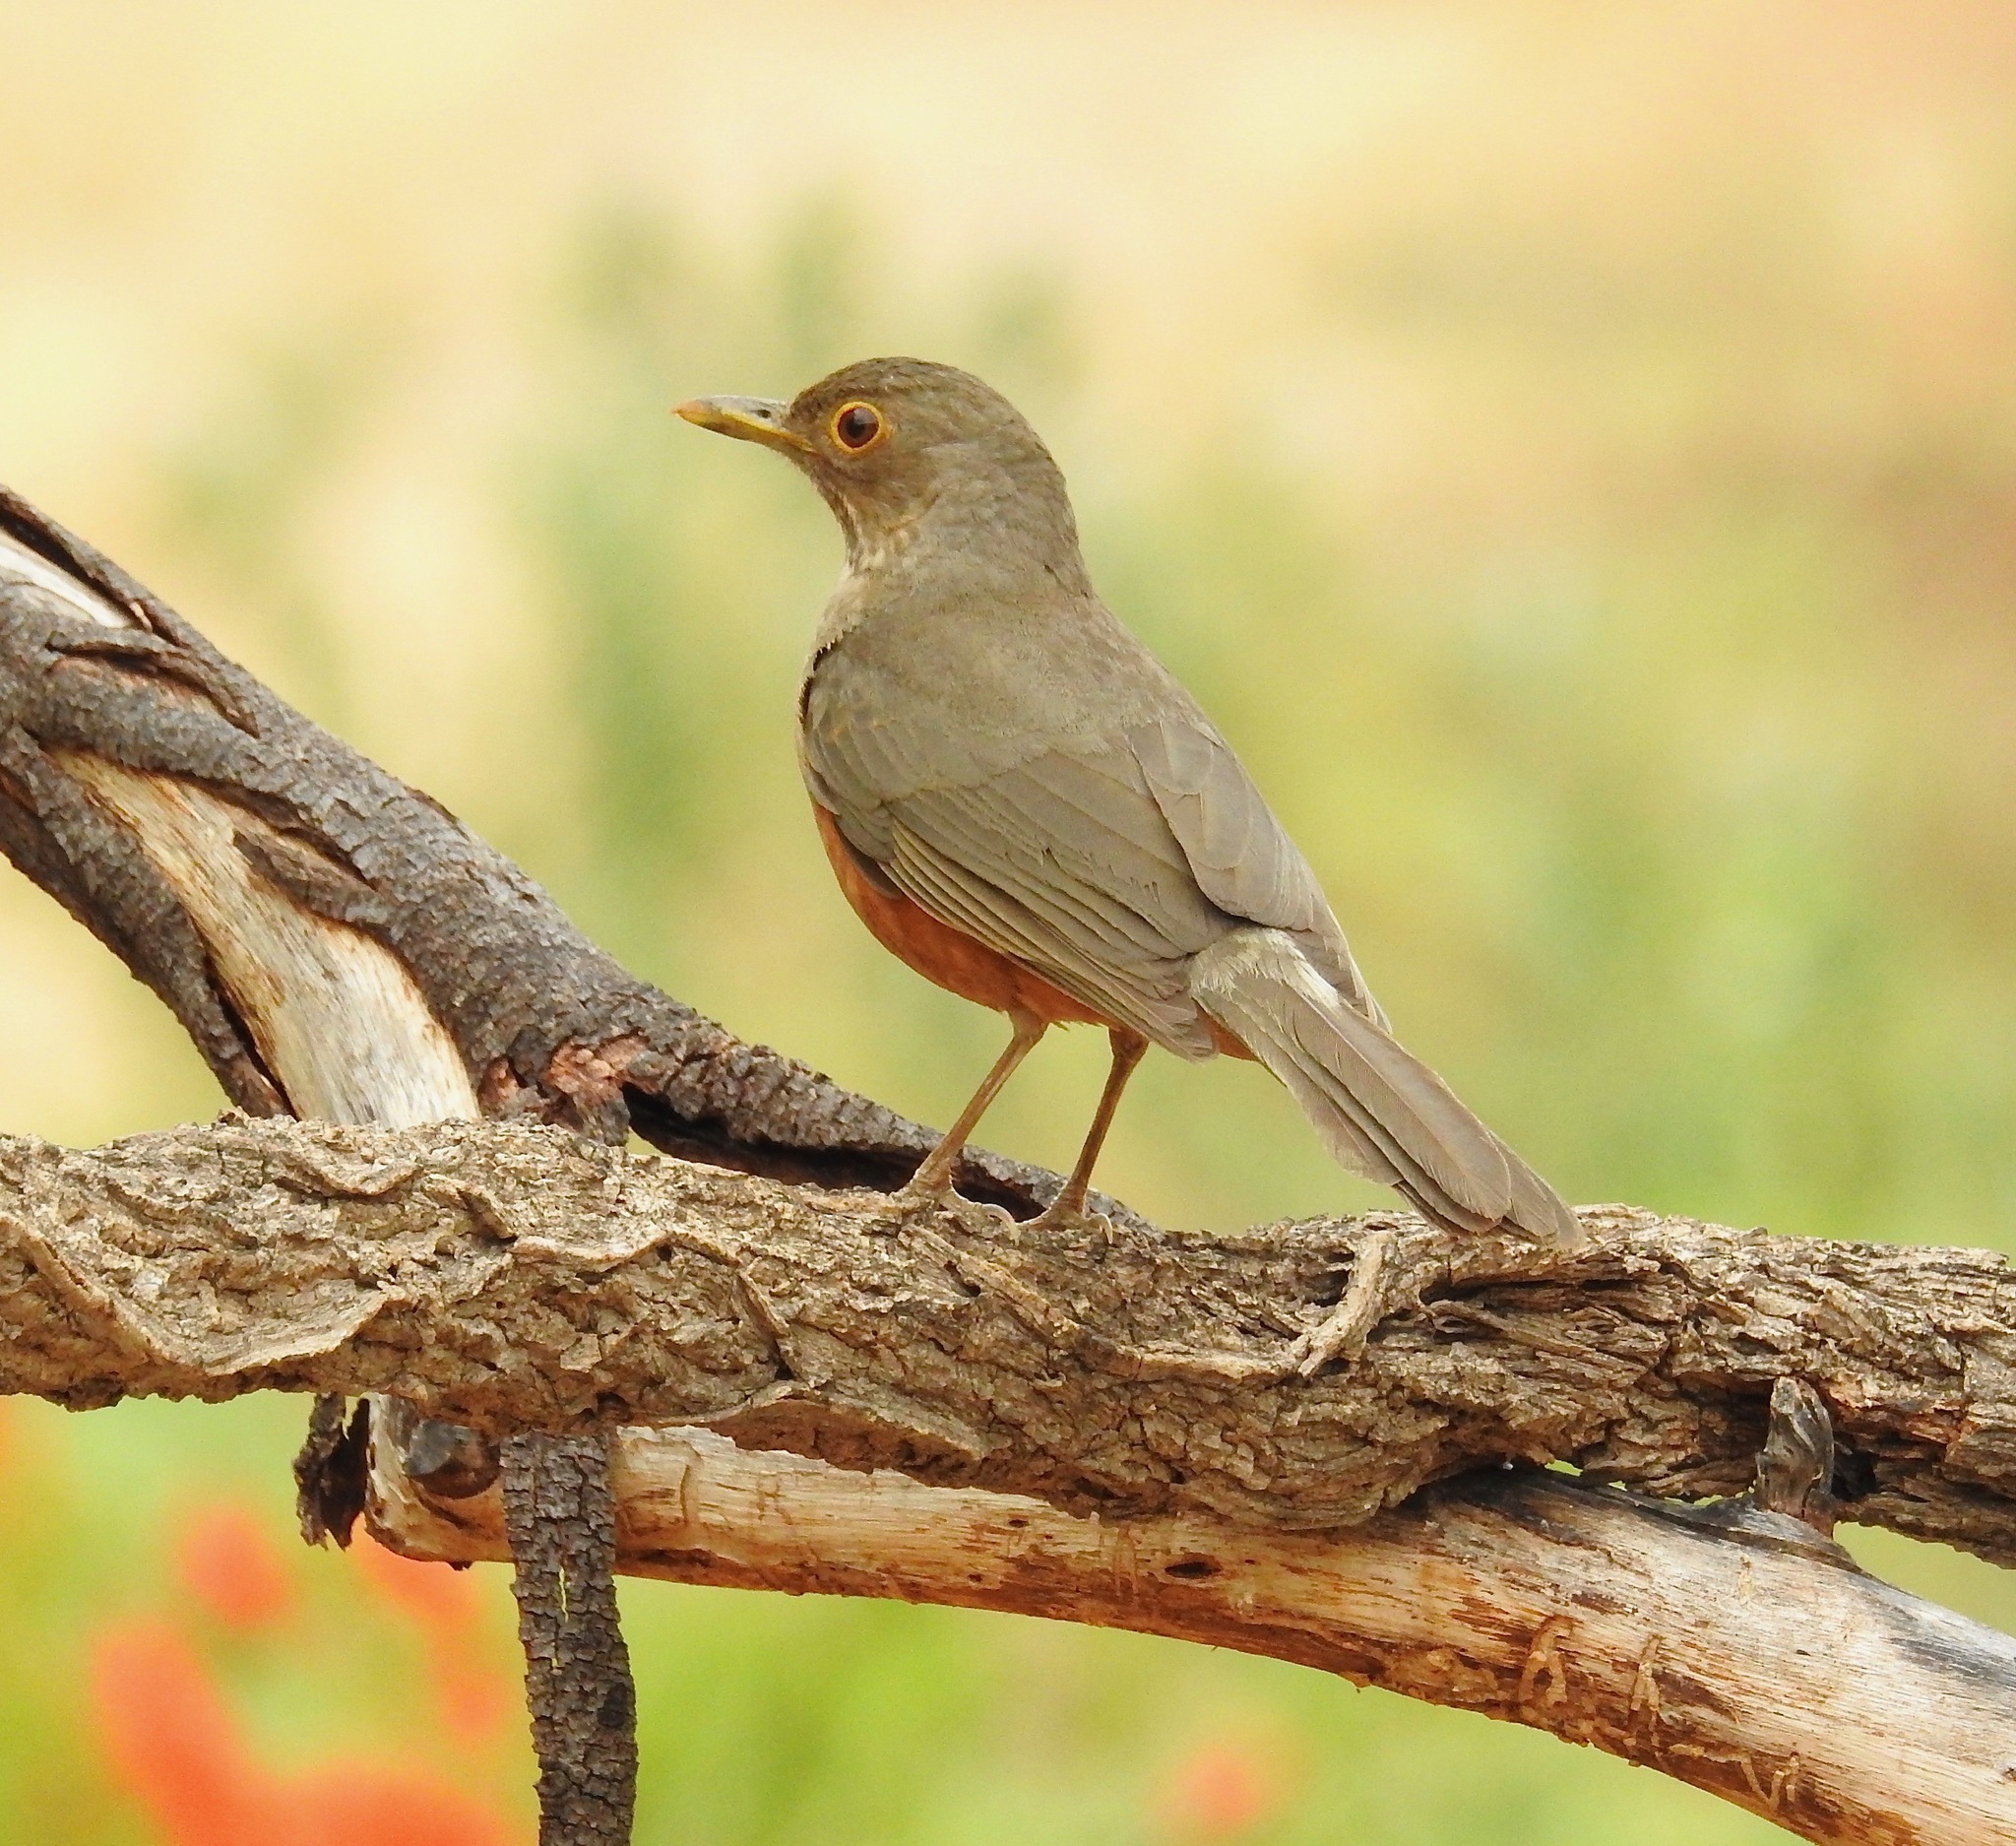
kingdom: Animalia
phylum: Chordata
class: Aves
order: Passeriformes
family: Turdidae
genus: Turdus
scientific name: Turdus rufiventris
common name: Rufous-bellied thrush
